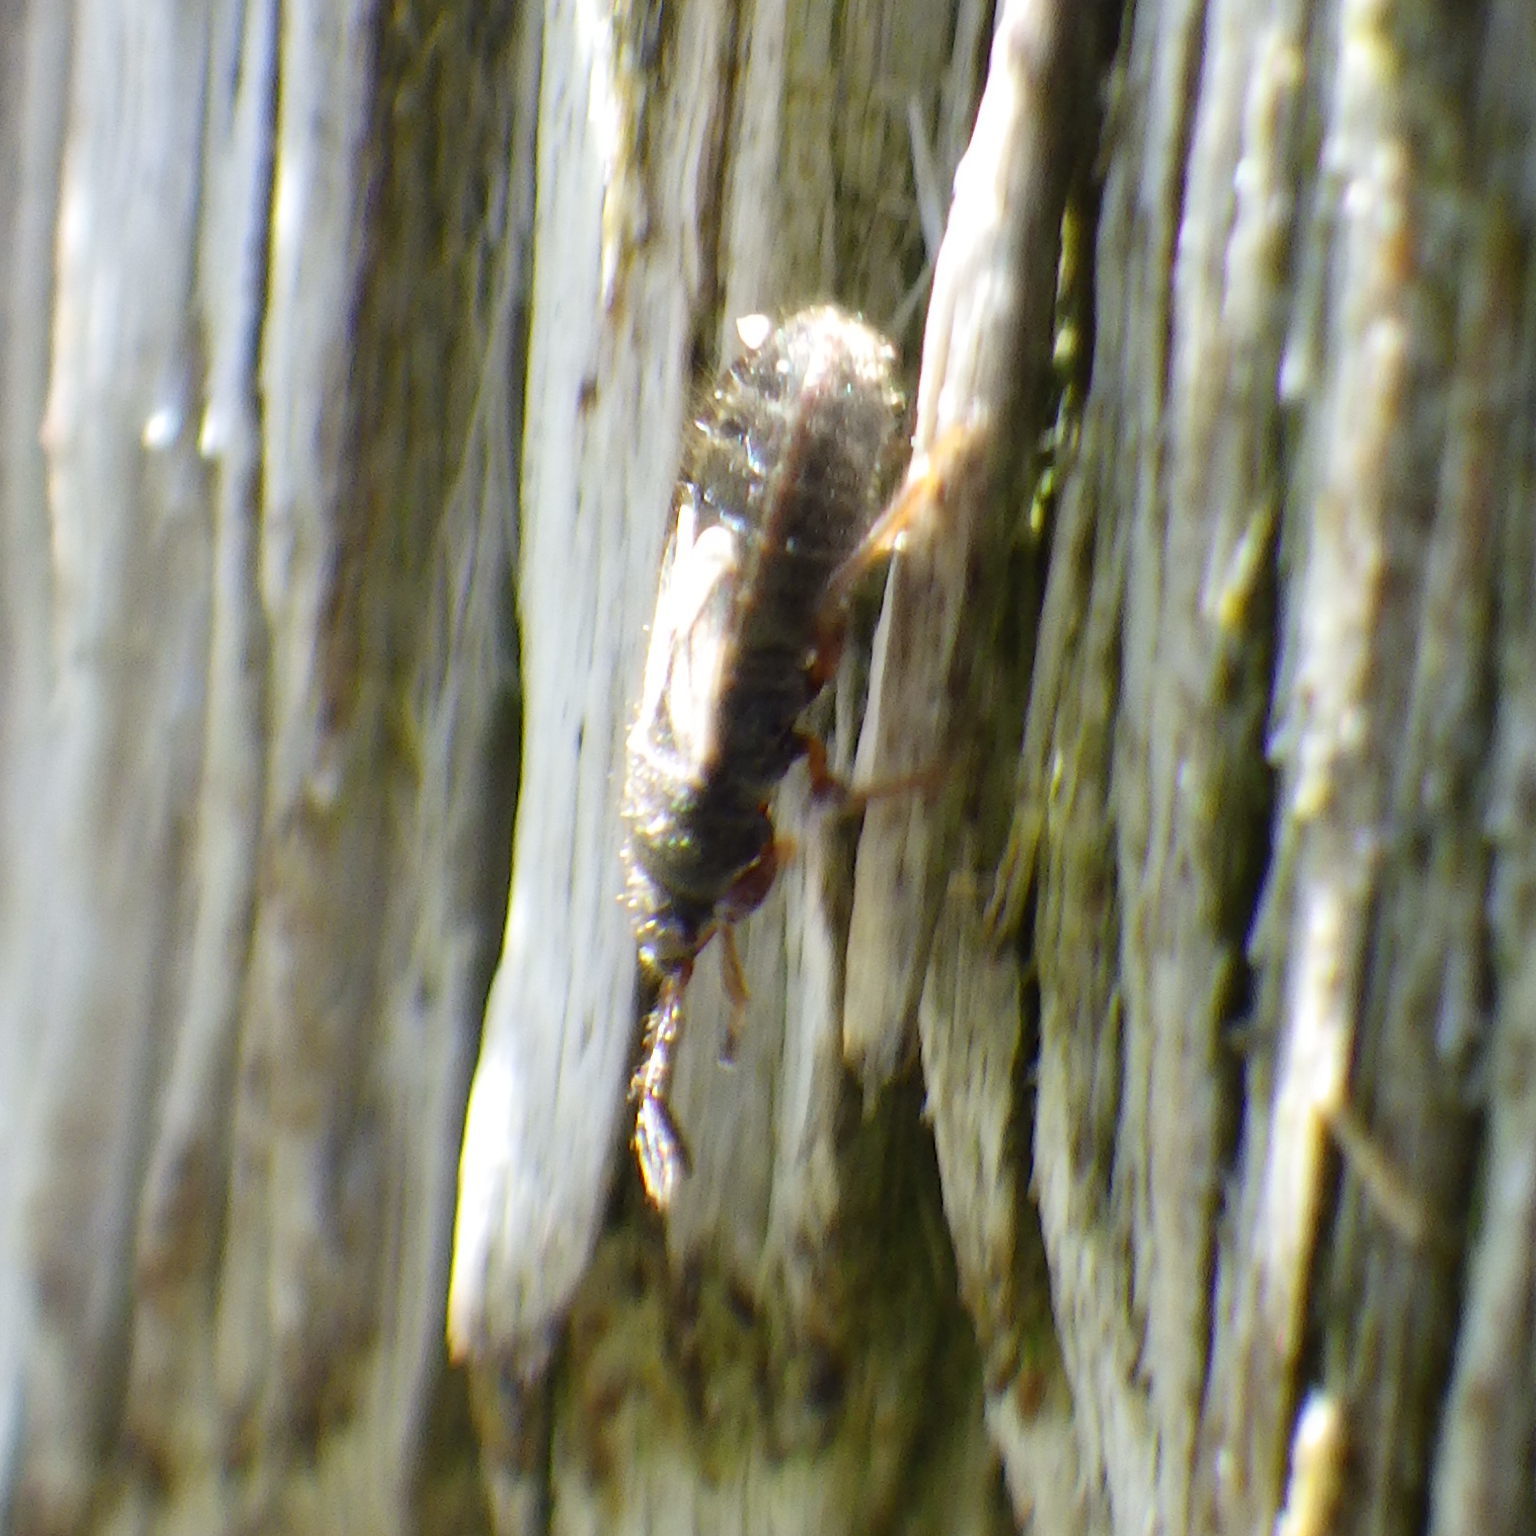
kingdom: Animalia
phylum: Arthropoda
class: Insecta
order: Hemiptera
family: Blissidae
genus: Blissus
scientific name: Blissus leucopterus
